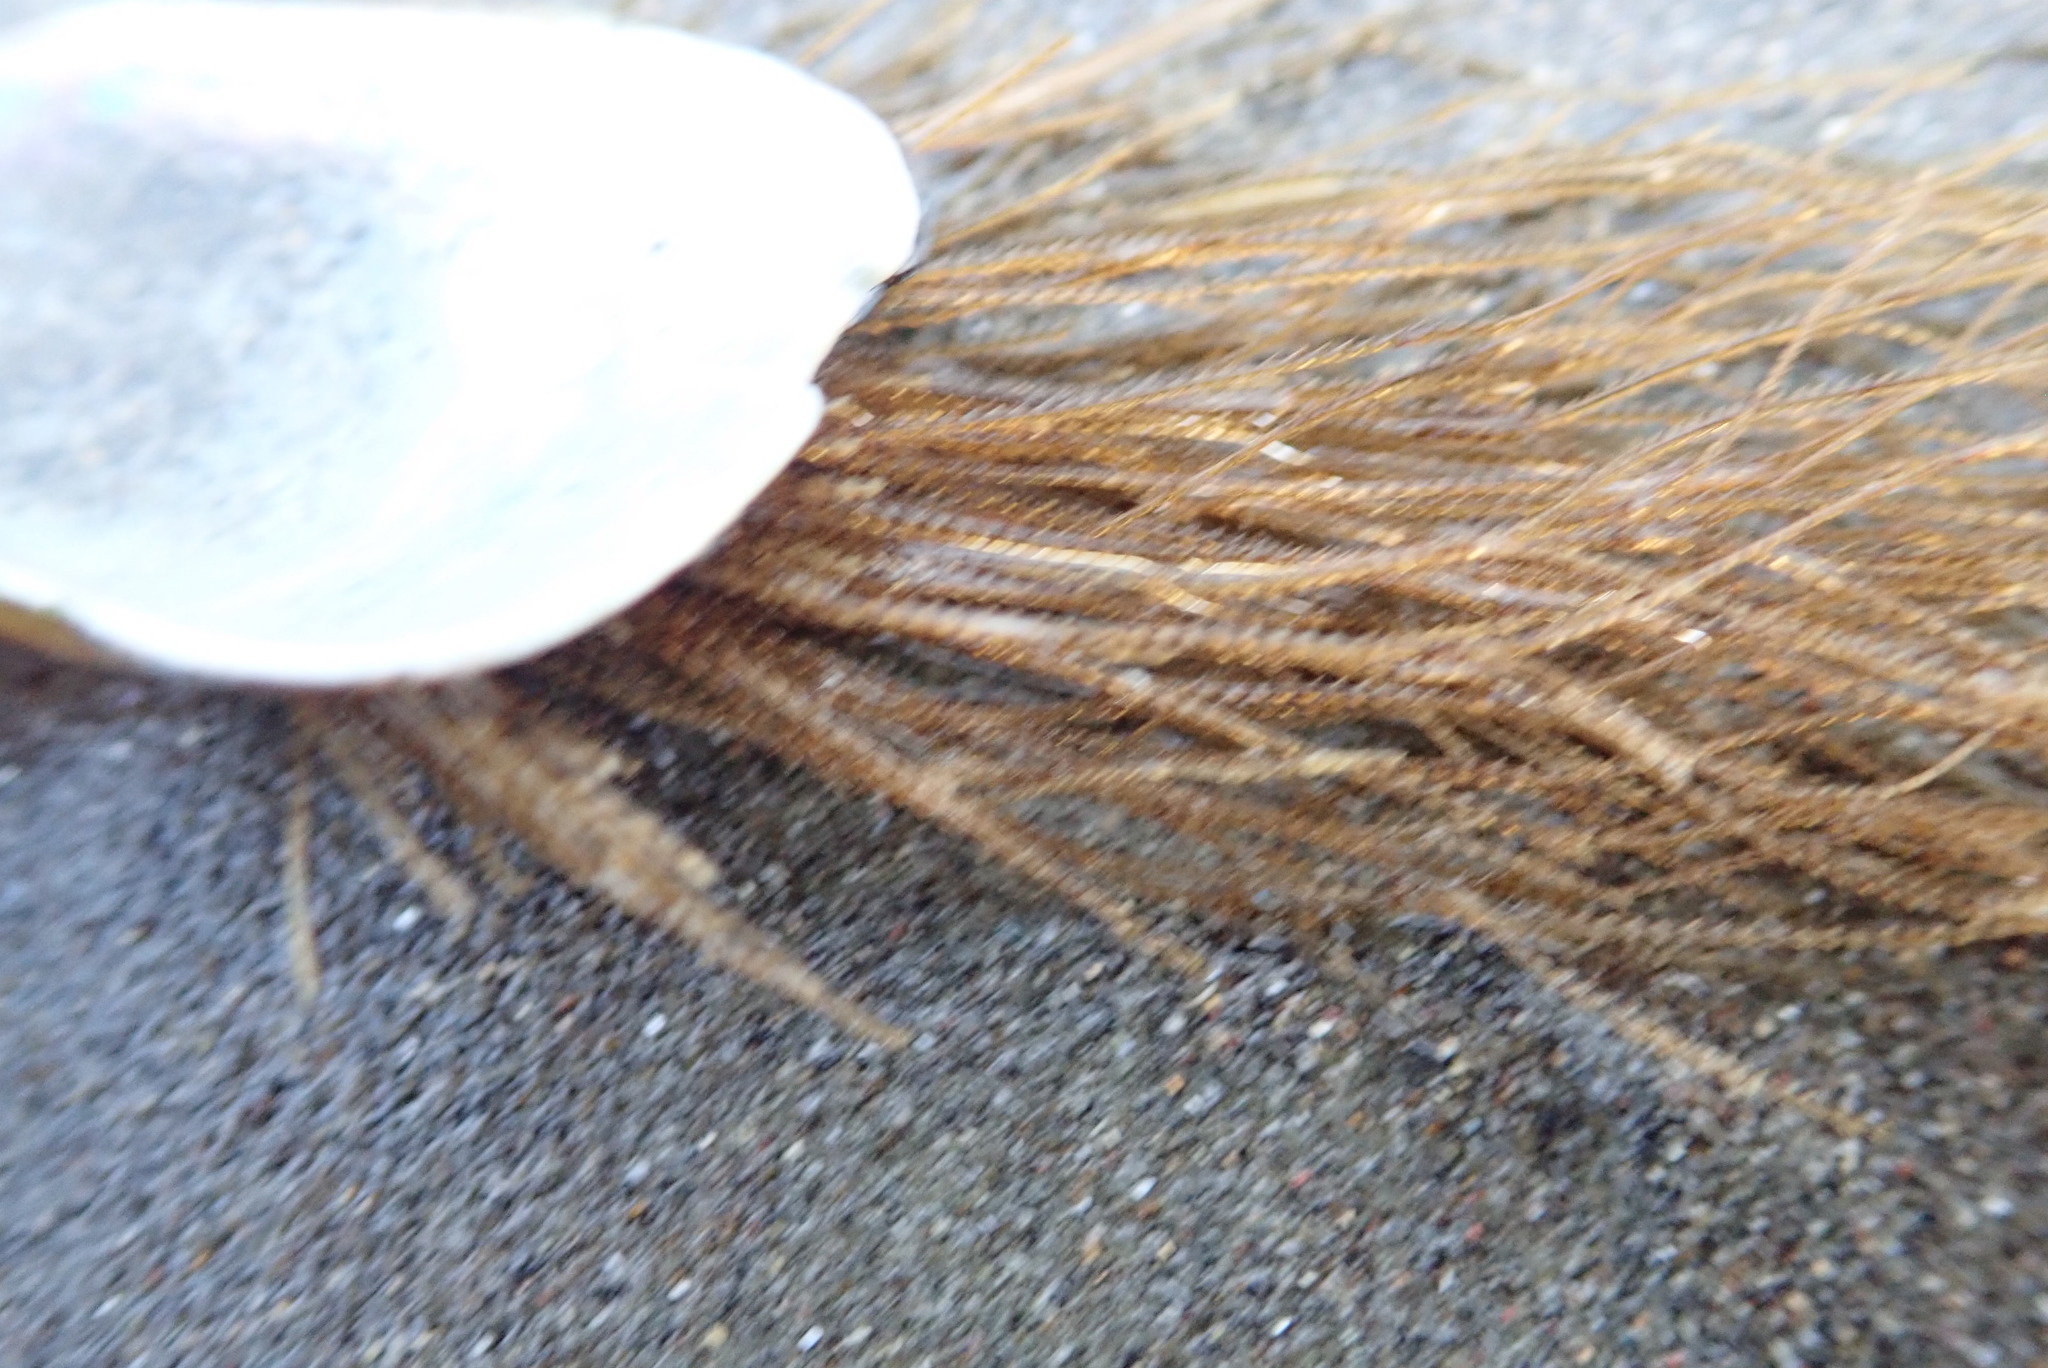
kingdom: Animalia
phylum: Cnidaria
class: Hydrozoa
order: Leptothecata
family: Sertulariidae
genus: Amphisbetia
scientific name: Amphisbetia bispinosa
